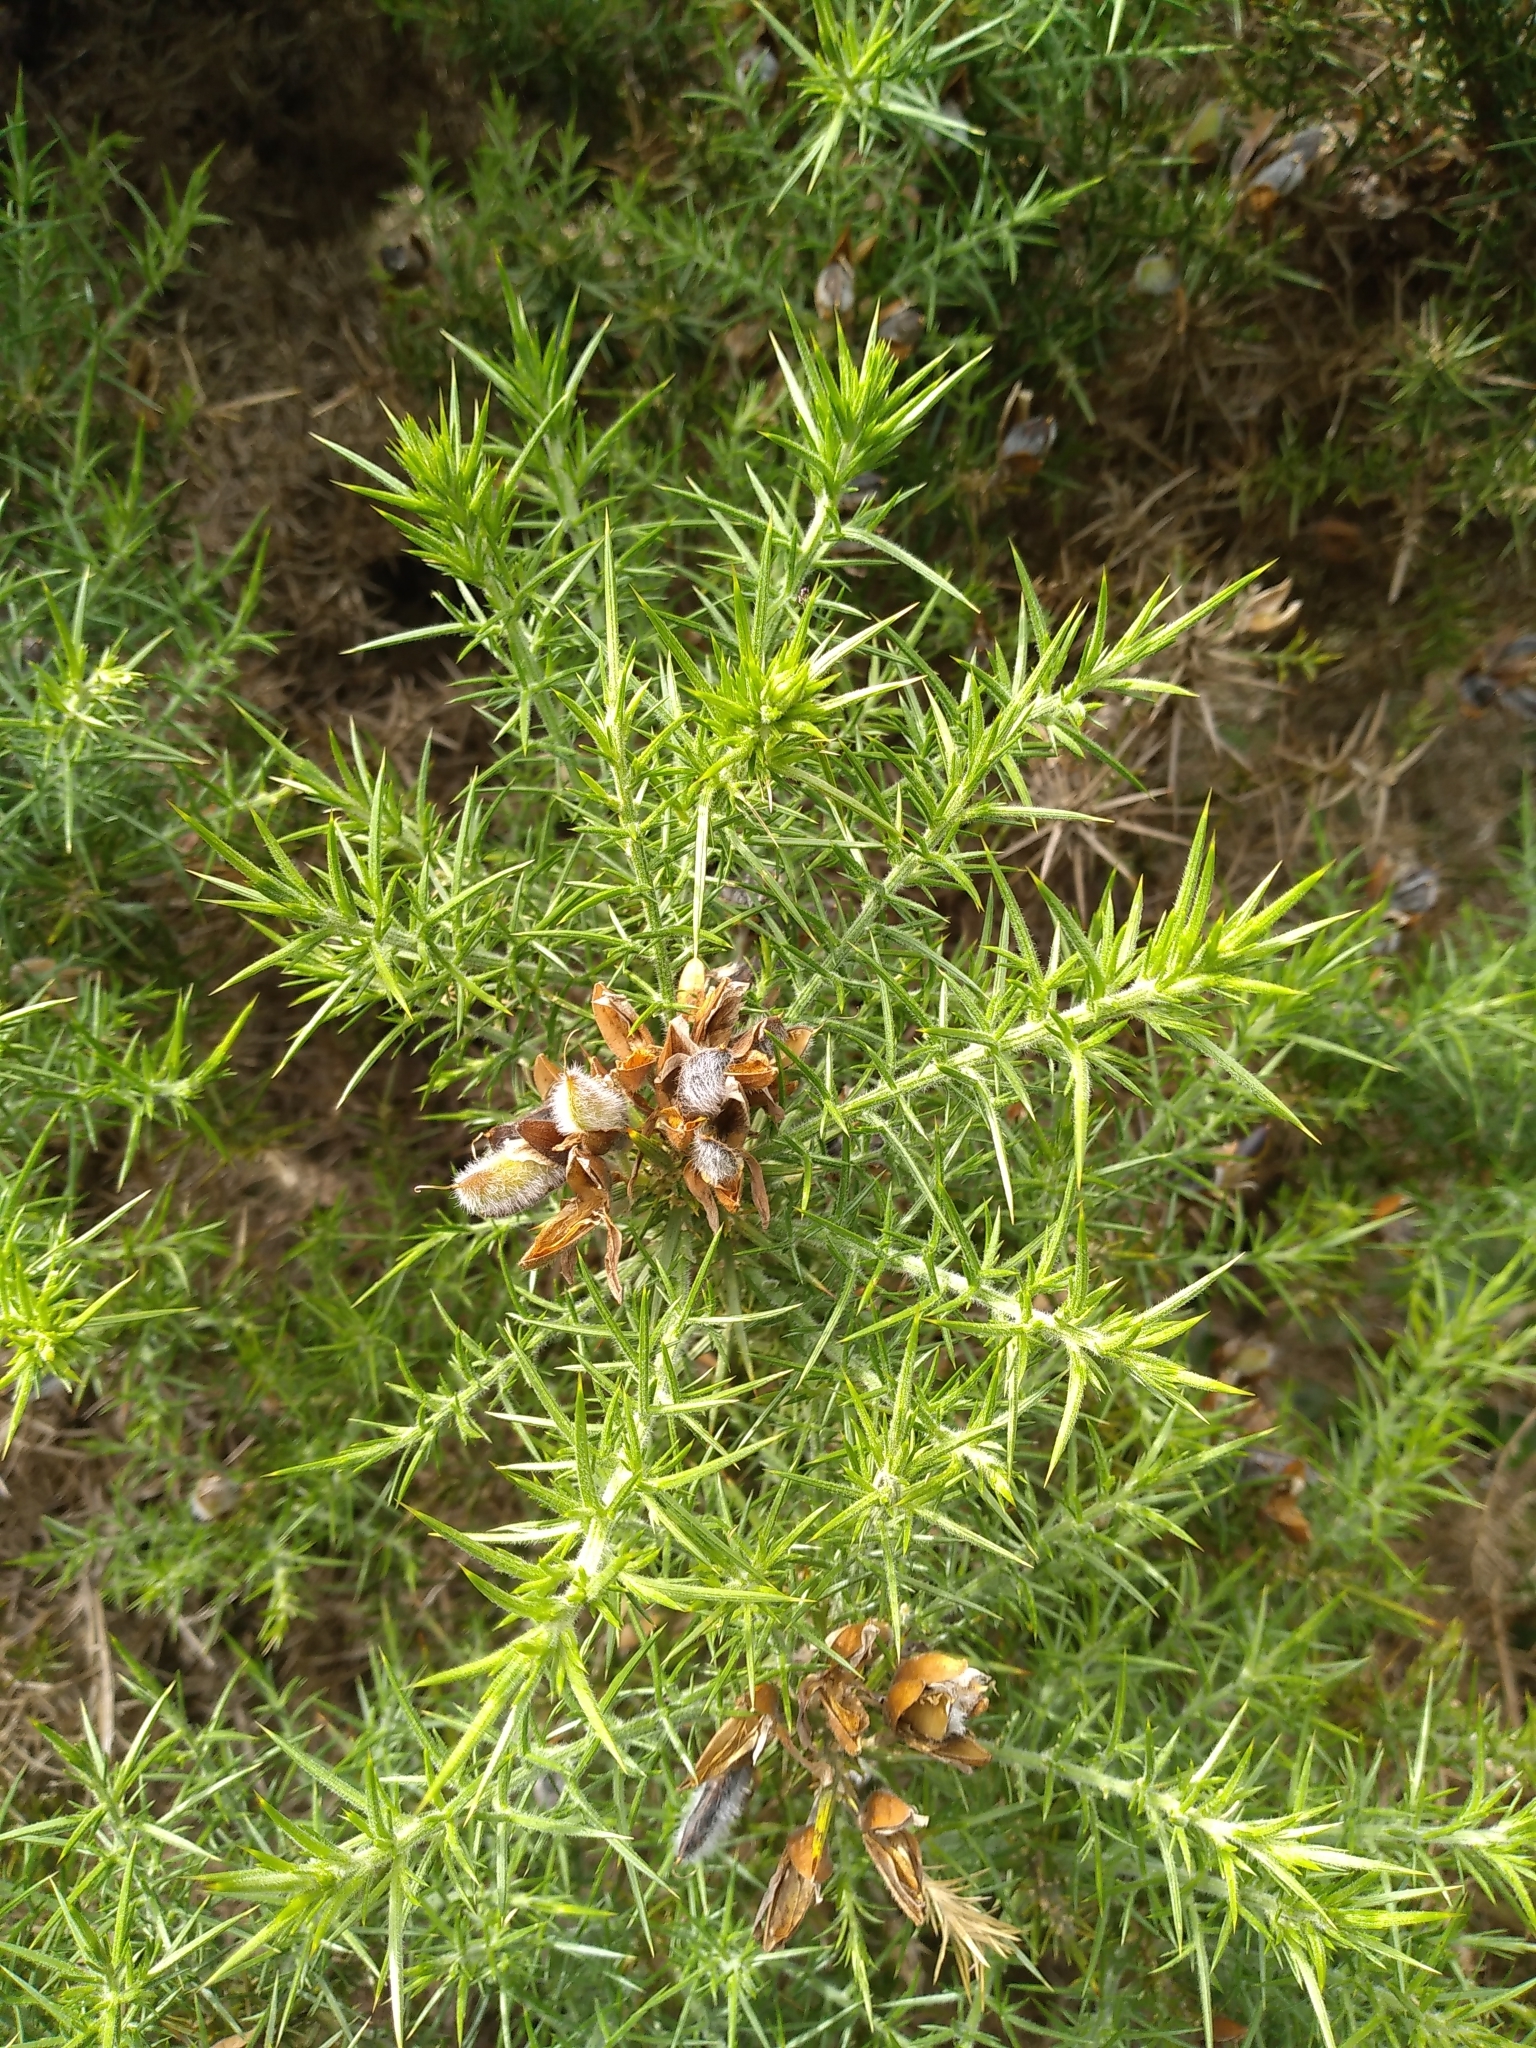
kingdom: Plantae
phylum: Tracheophyta
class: Magnoliopsida
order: Fabales
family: Fabaceae
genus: Ulex
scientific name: Ulex europaeus
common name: Common gorse
